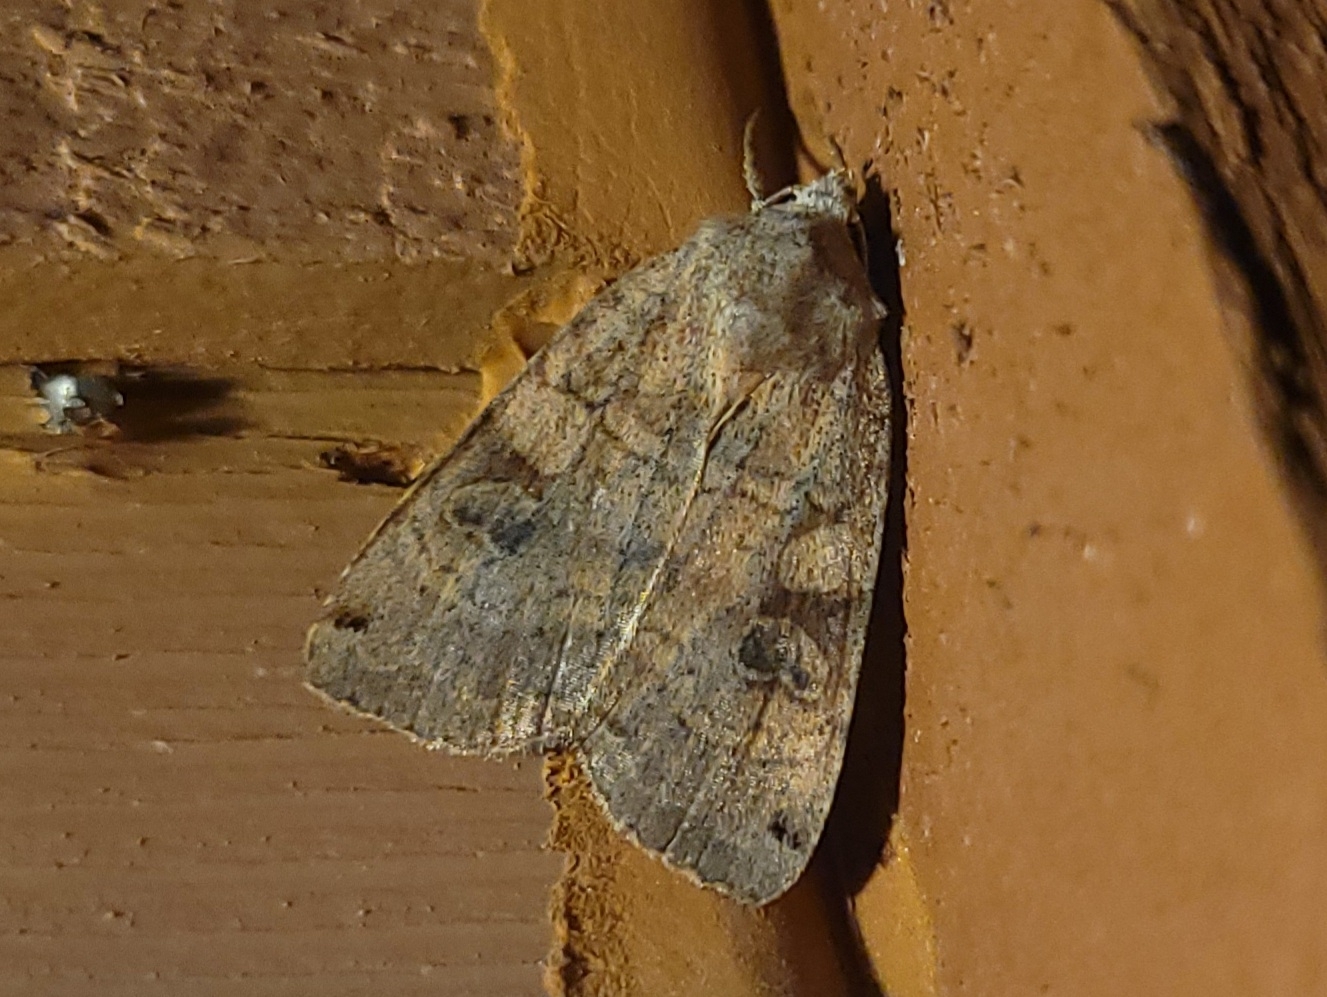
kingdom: Animalia
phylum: Arthropoda
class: Insecta
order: Lepidoptera
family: Noctuidae
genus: Xestia
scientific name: Xestia smithii
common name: Smith's dart
